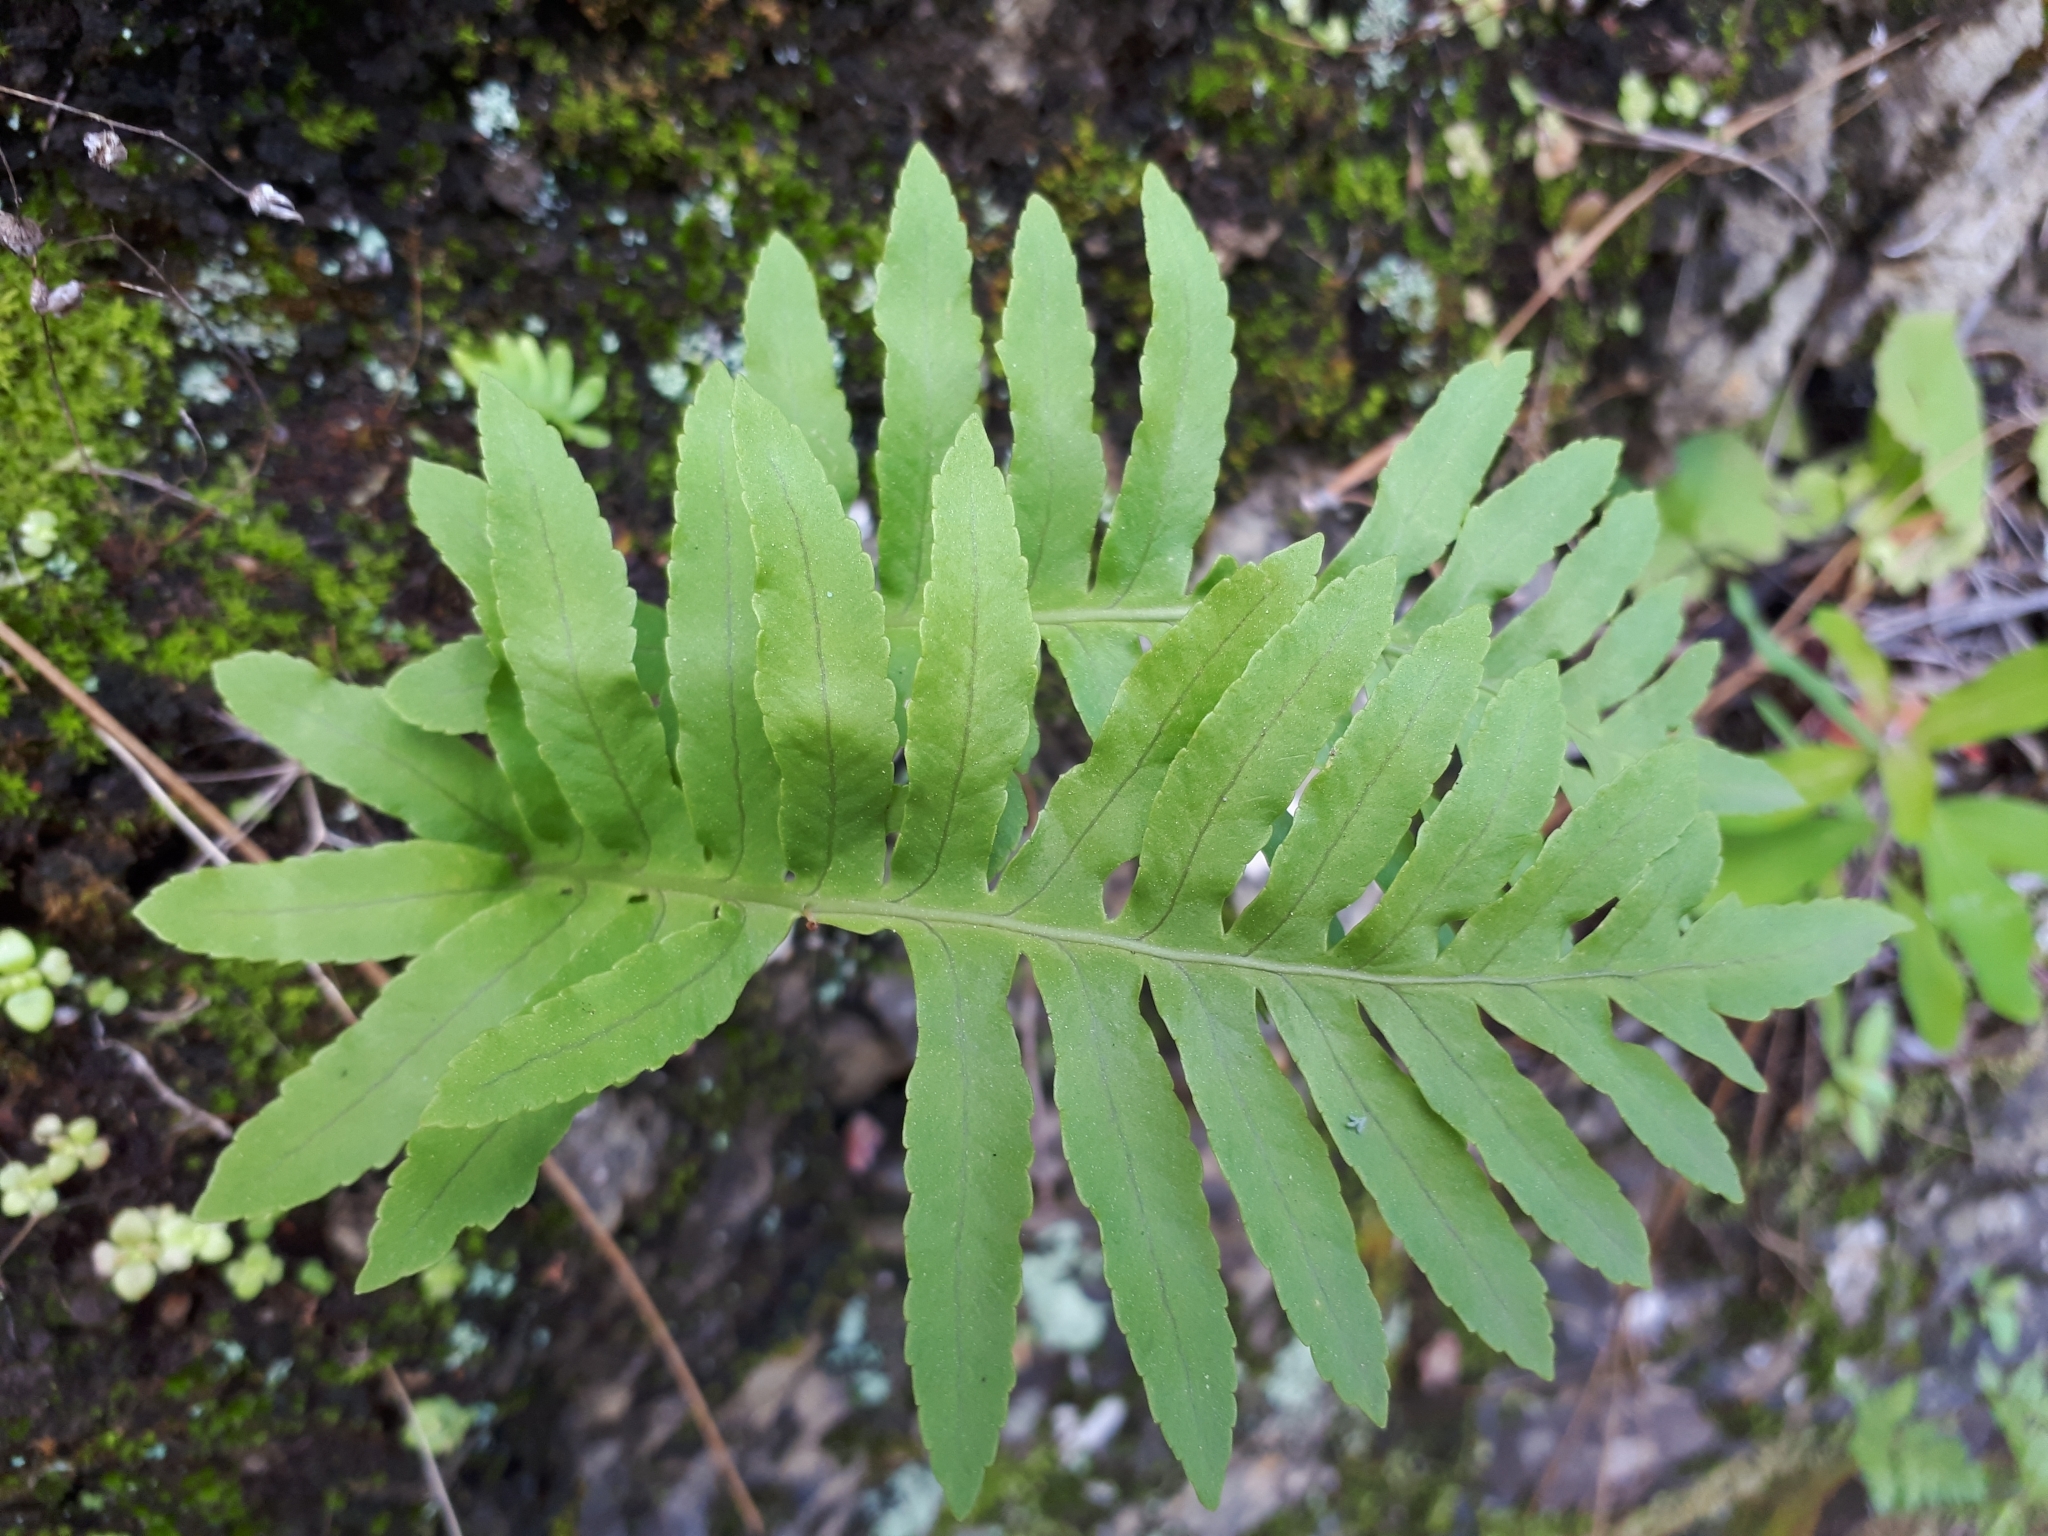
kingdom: Plantae
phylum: Tracheophyta
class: Polypodiopsida
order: Polypodiales
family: Polypodiaceae
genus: Polypodium
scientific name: Polypodium macaronesicum
